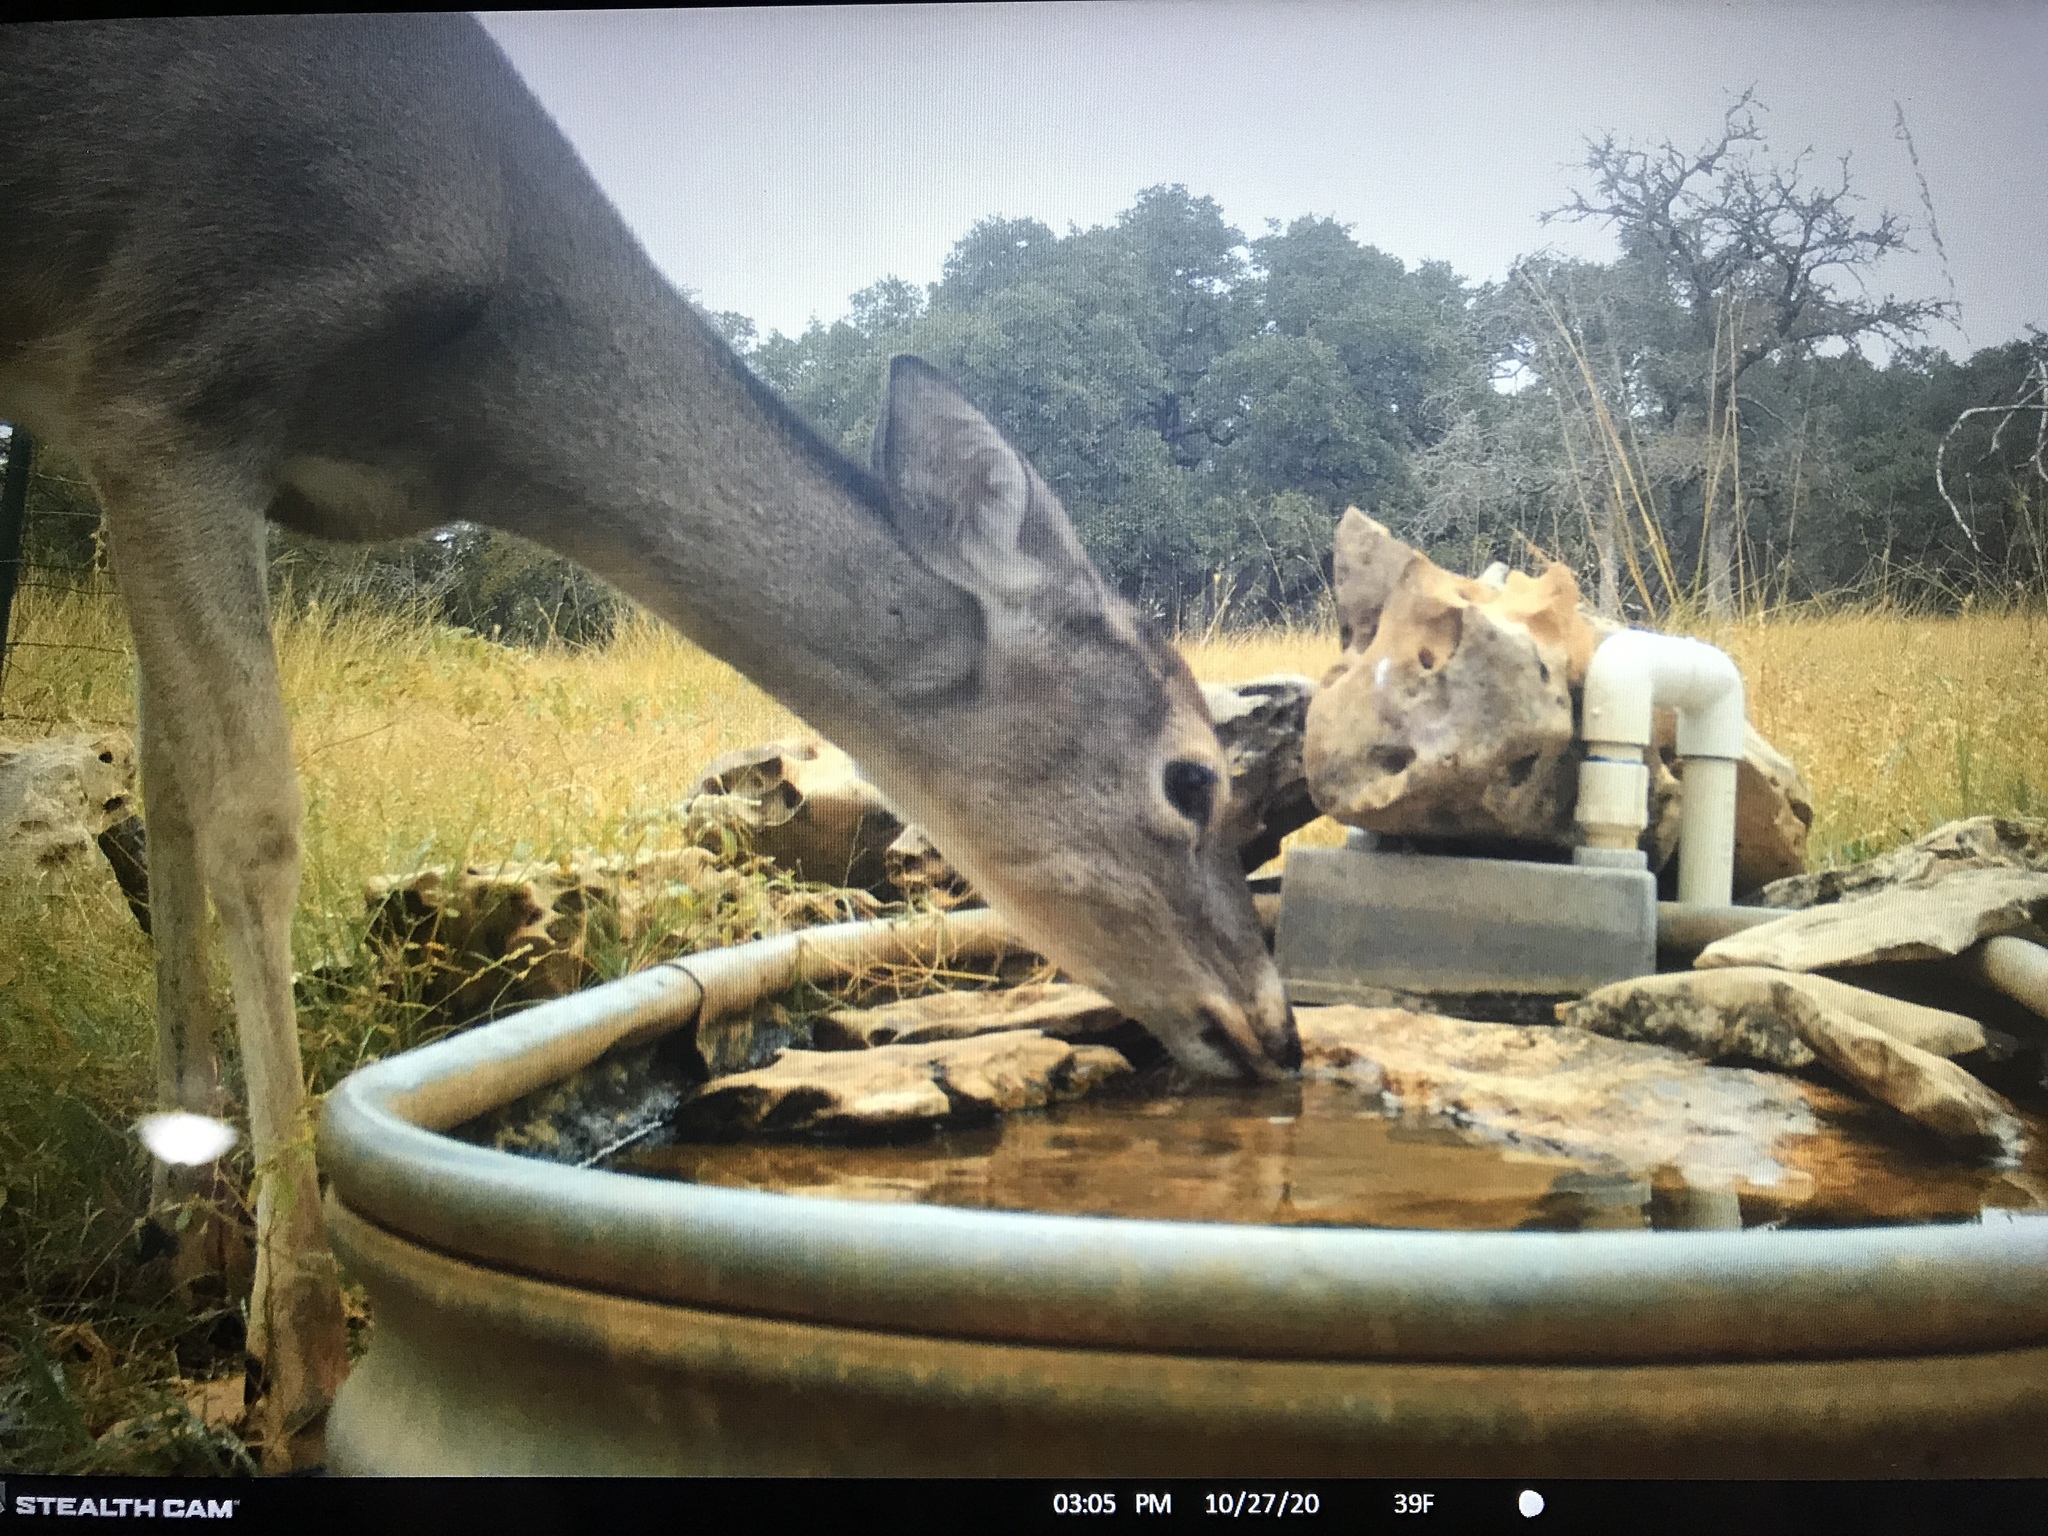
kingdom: Animalia
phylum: Chordata
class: Mammalia
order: Artiodactyla
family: Cervidae
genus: Odocoileus
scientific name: Odocoileus virginianus
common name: White-tailed deer
